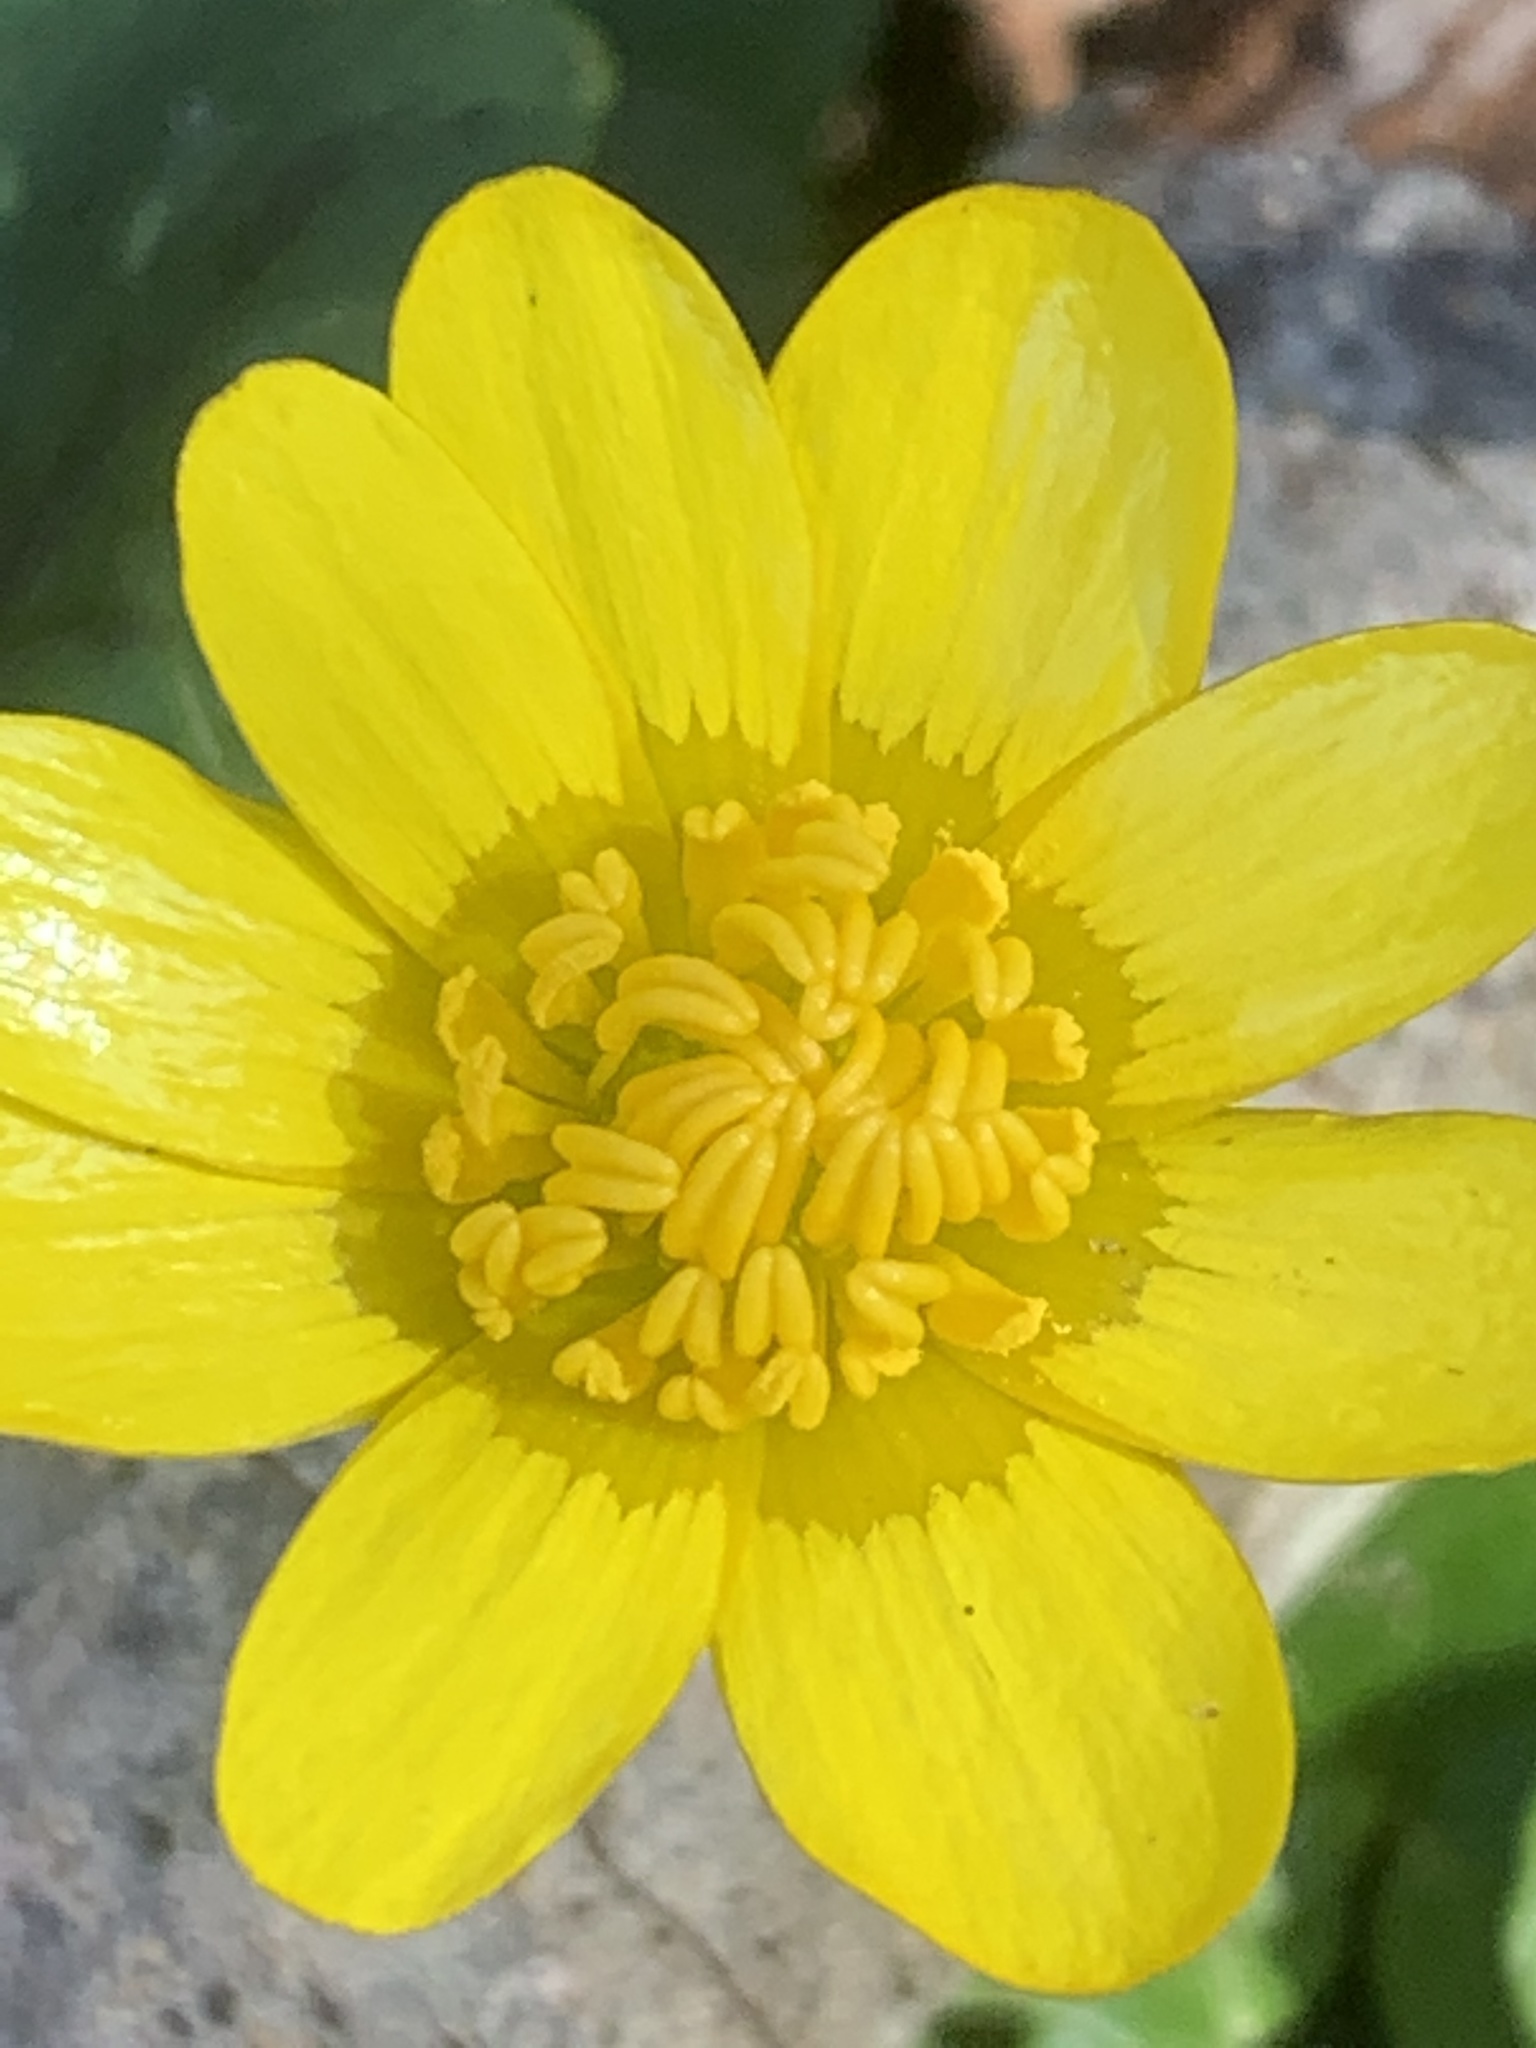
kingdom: Plantae
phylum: Tracheophyta
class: Magnoliopsida
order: Ranunculales
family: Ranunculaceae
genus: Ficaria
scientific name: Ficaria verna
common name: Lesser celandine
